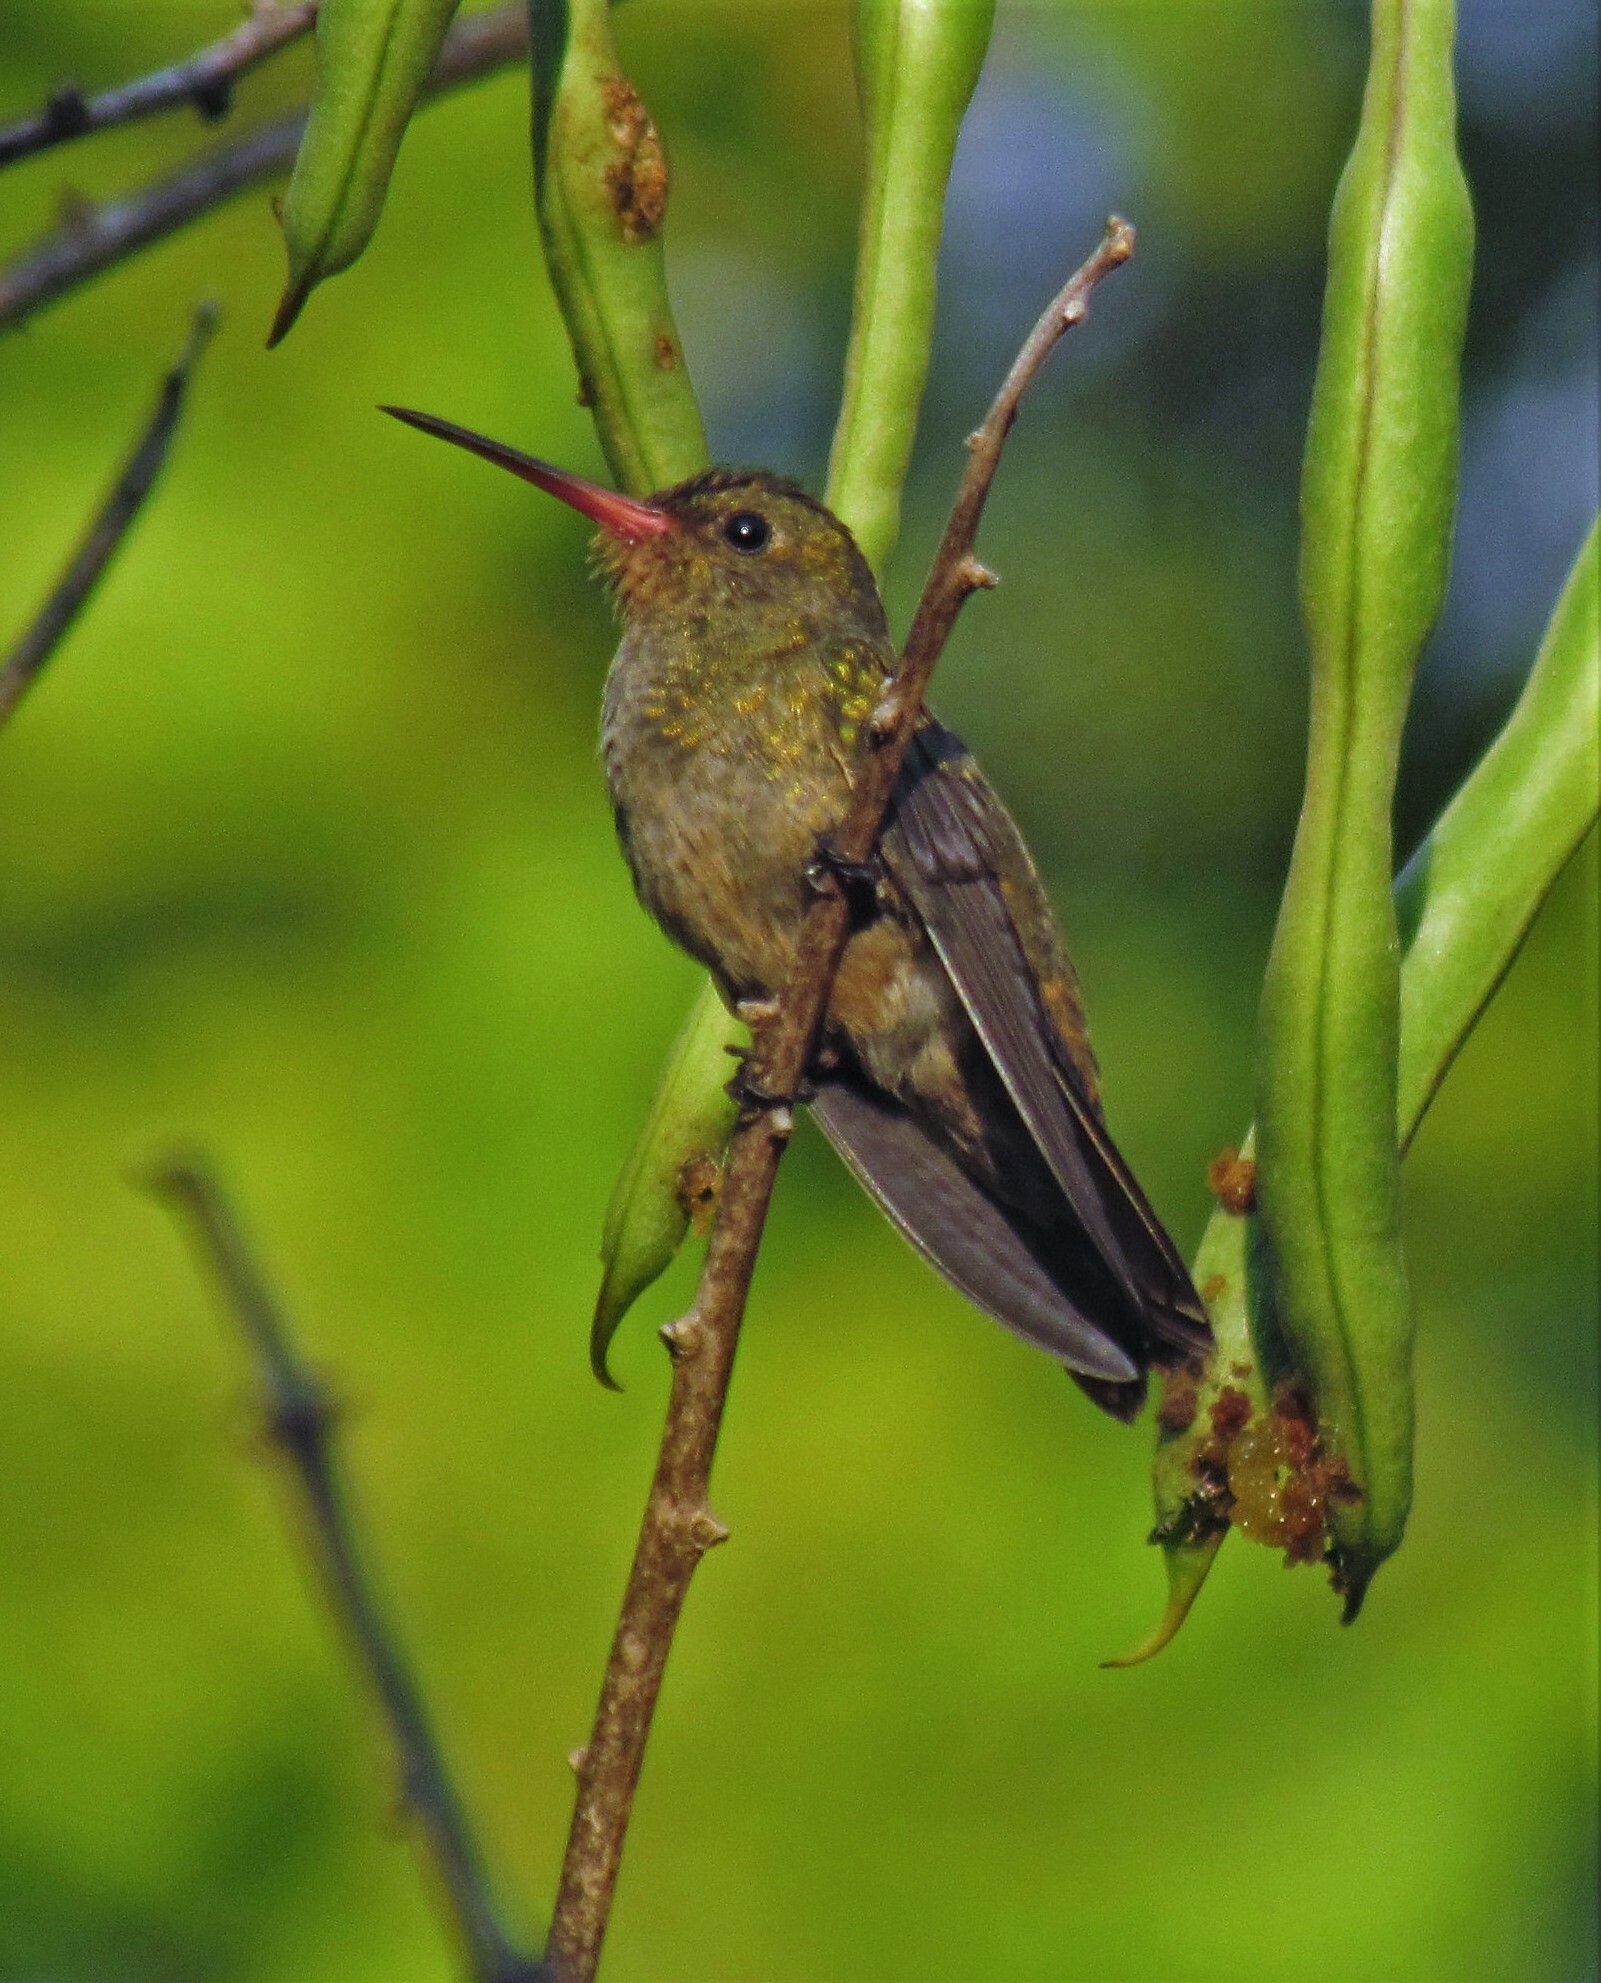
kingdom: Animalia
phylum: Chordata
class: Aves
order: Apodiformes
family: Trochilidae
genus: Hylocharis
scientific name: Hylocharis chrysura
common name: Gilded sapphire
